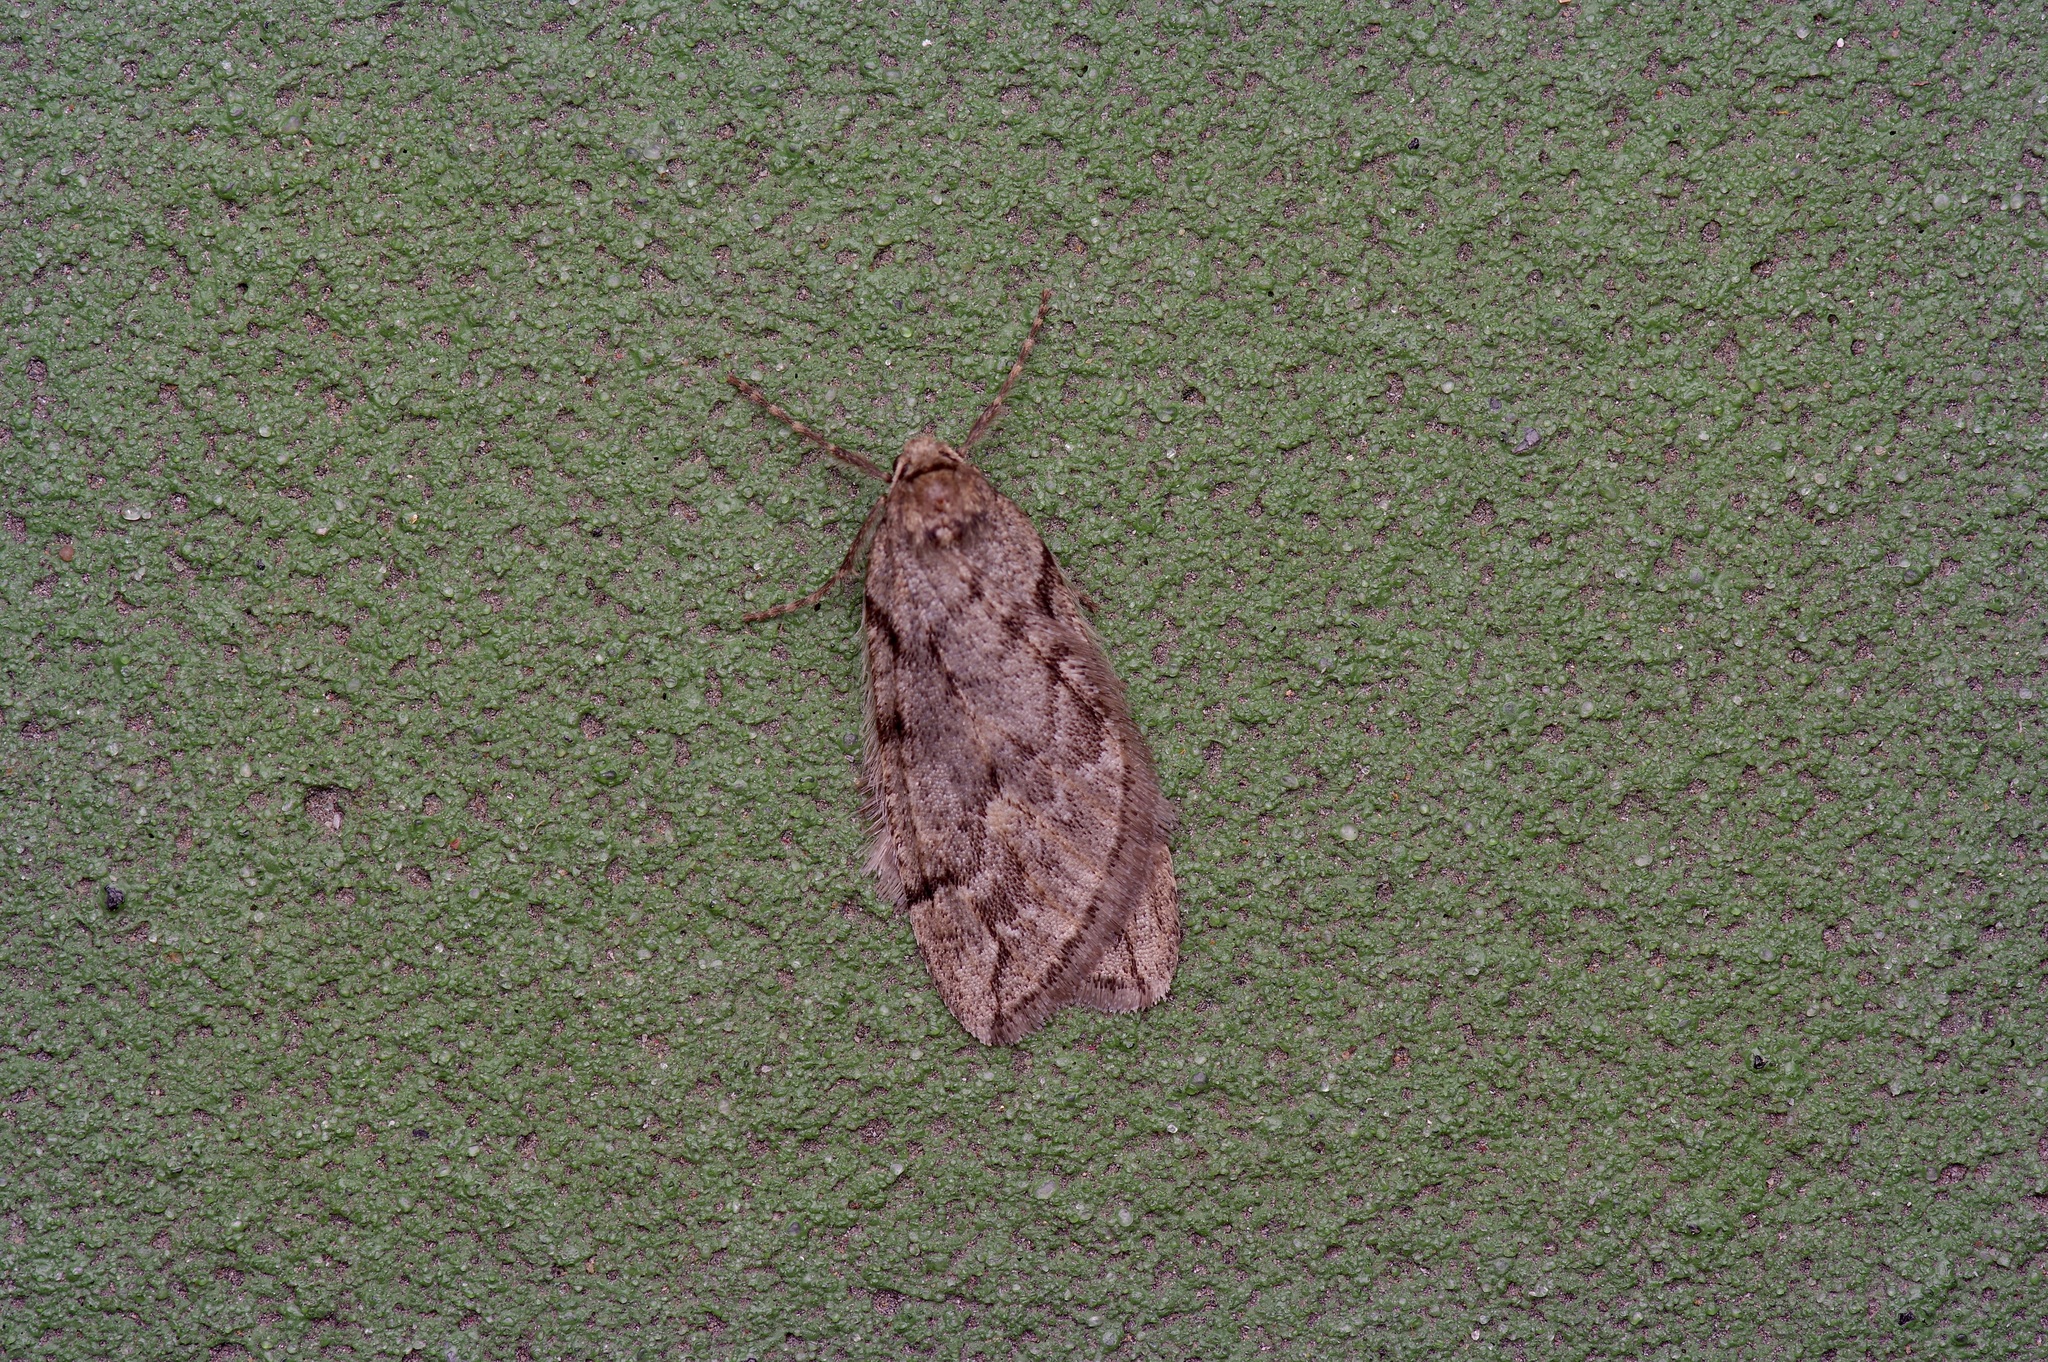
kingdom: Animalia
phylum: Arthropoda
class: Insecta
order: Lepidoptera
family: Geometridae
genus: Paleacrita
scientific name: Paleacrita vernata
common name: Spring cankerworm
